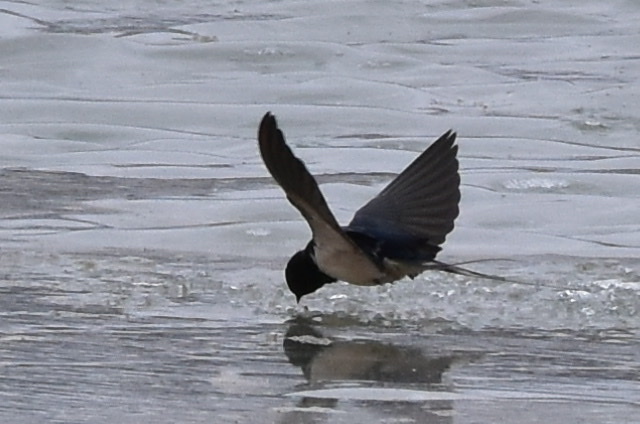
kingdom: Animalia
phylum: Chordata
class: Aves
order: Passeriformes
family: Hirundinidae
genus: Hirundo
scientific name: Hirundo rustica
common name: Barn swallow
